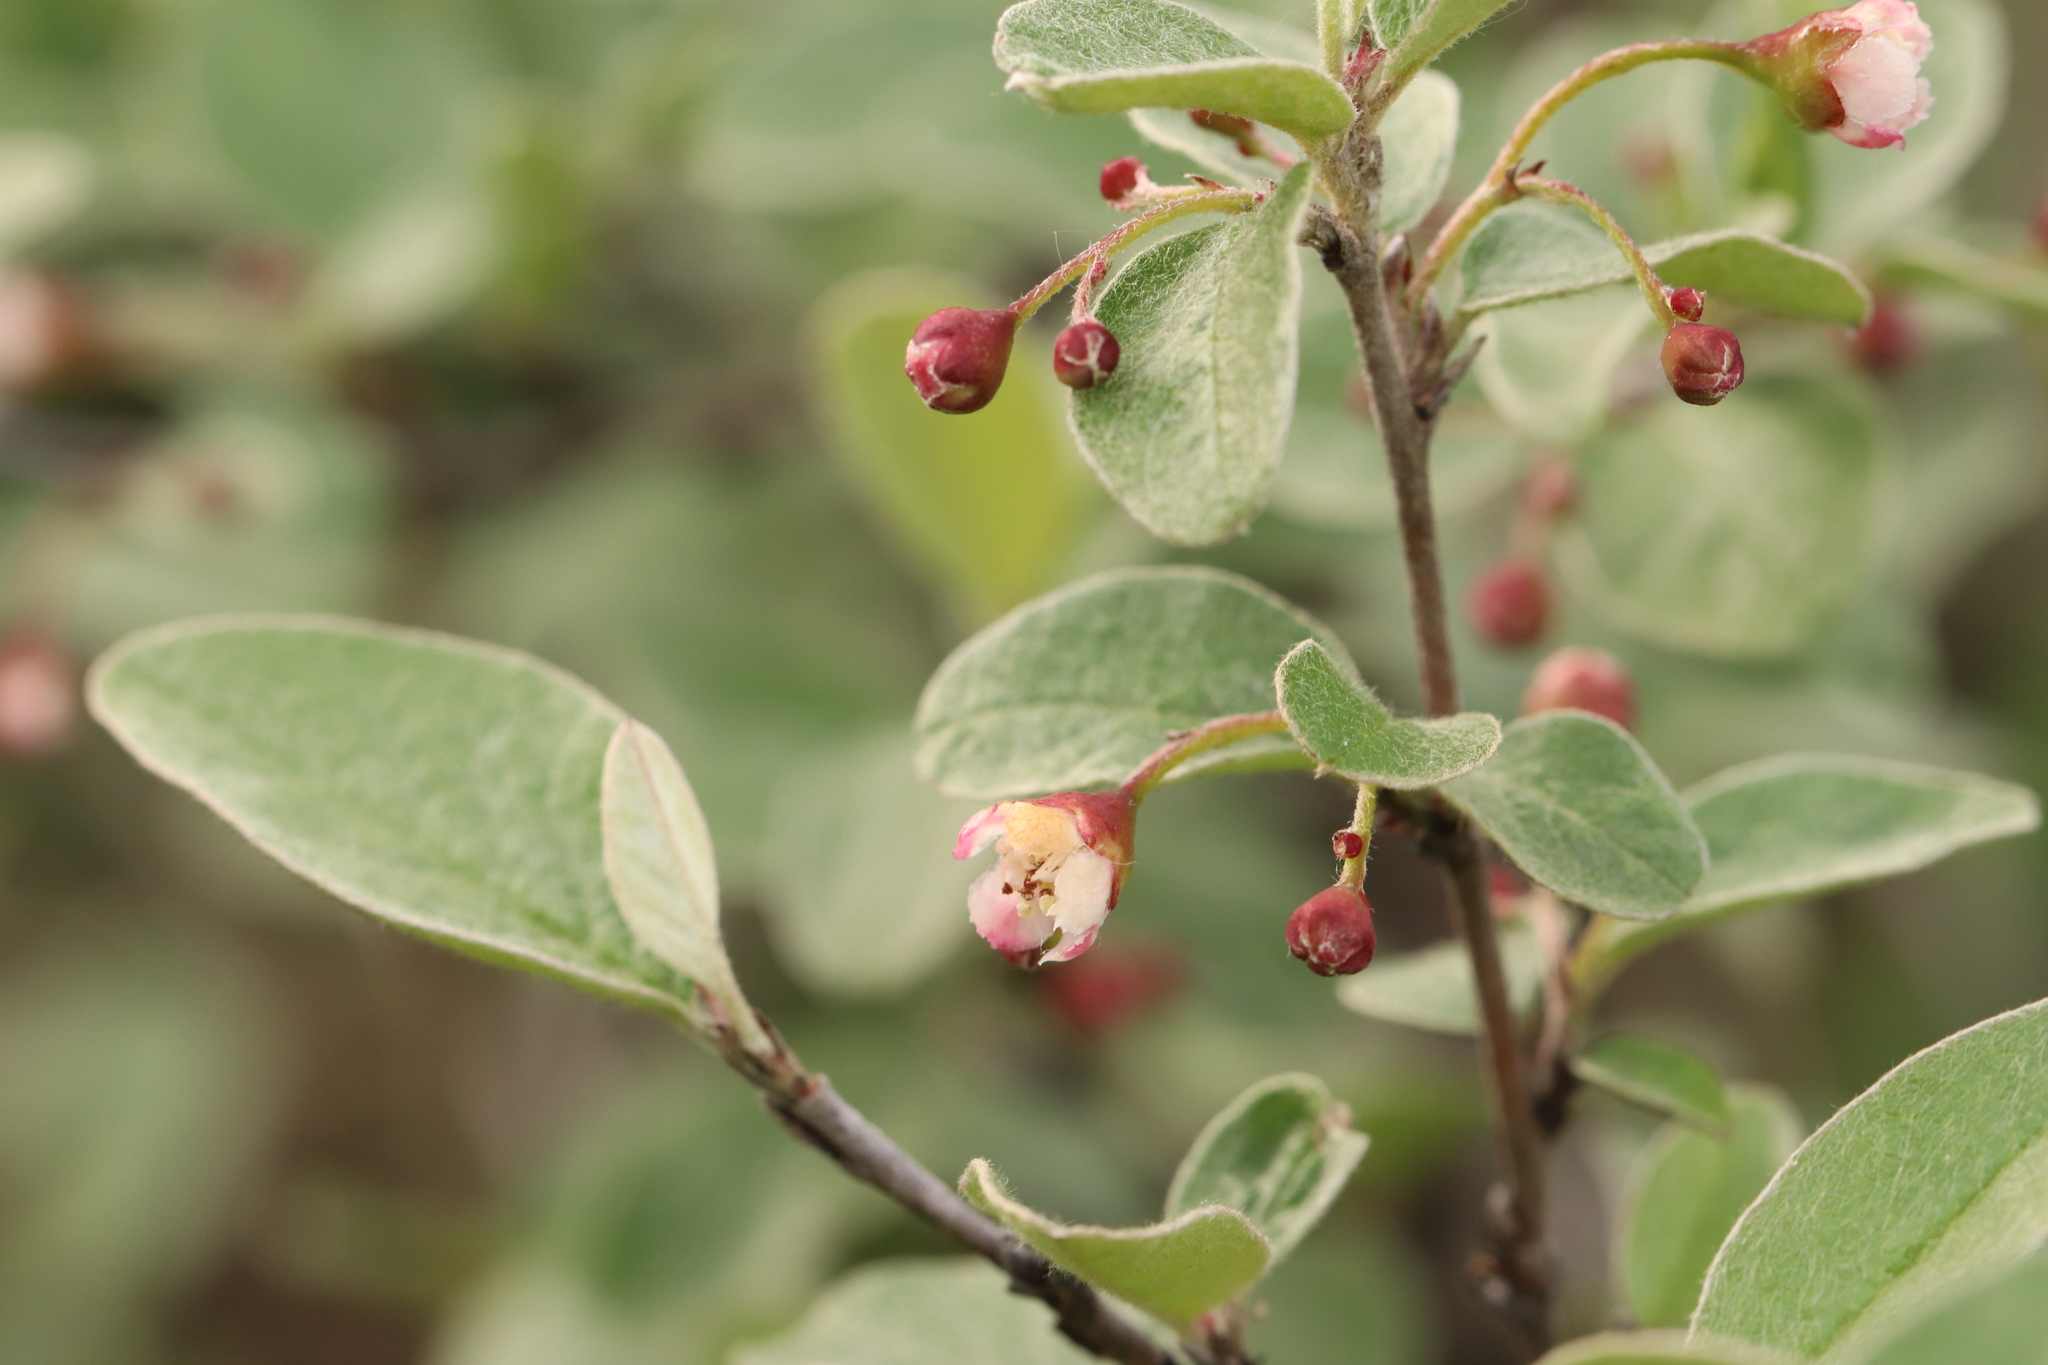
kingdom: Plantae
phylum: Tracheophyta
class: Magnoliopsida
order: Rosales
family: Rosaceae
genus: Cotoneaster
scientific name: Cotoneaster melanocarpus
